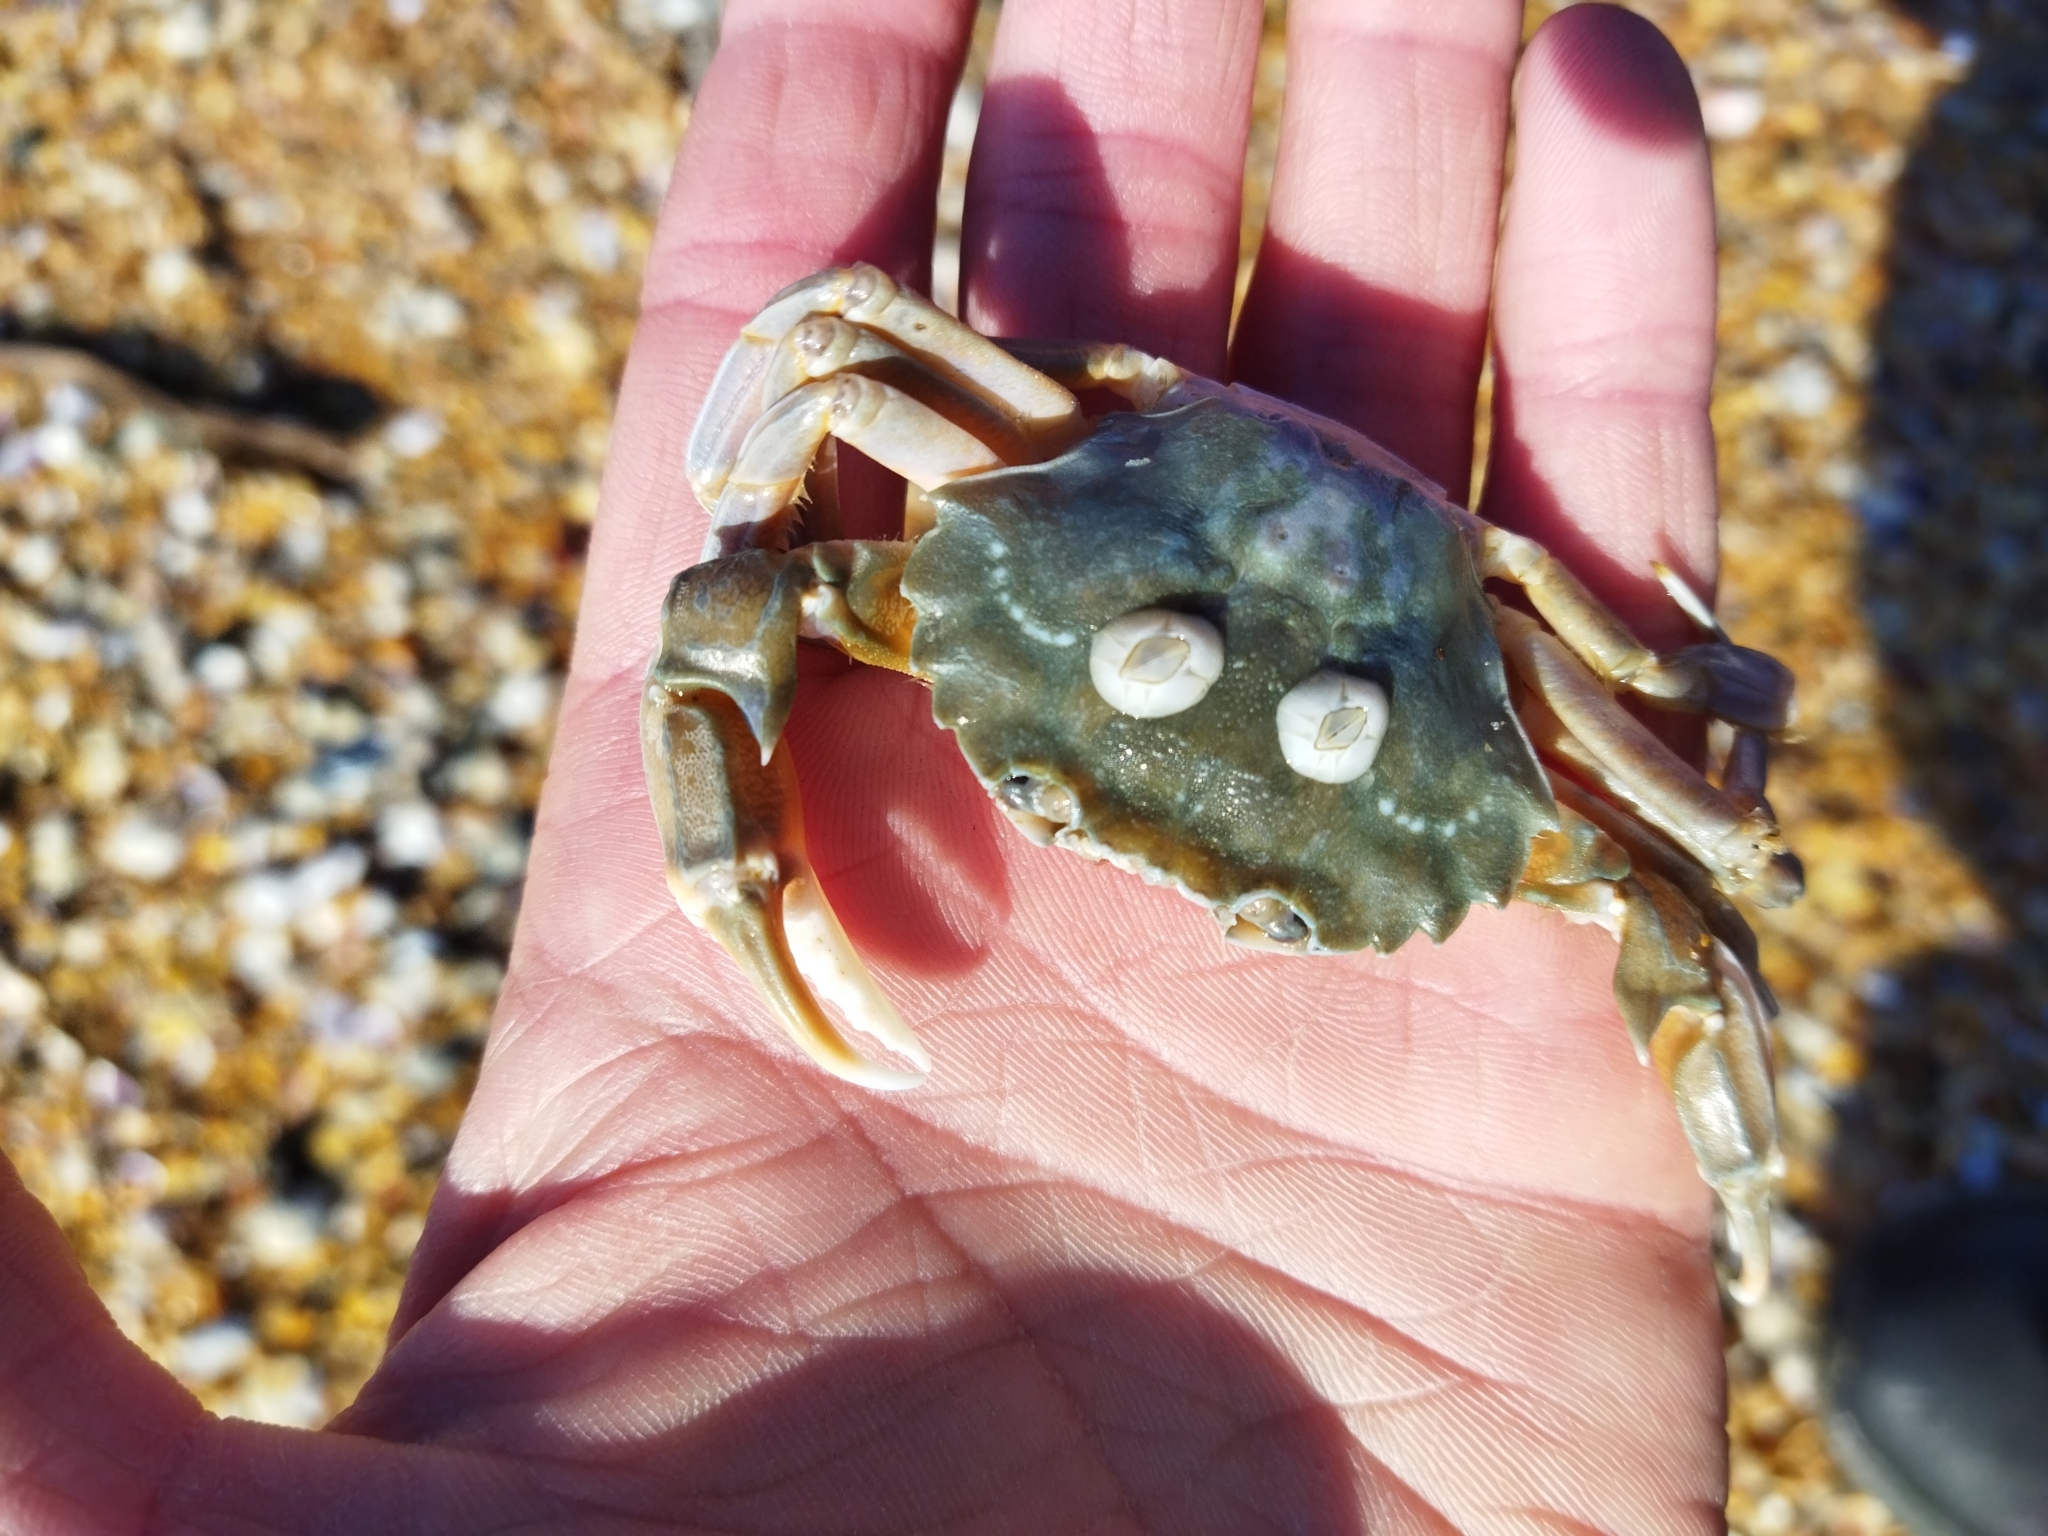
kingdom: Animalia
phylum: Arthropoda
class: Malacostraca
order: Decapoda
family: Polybiidae
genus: Liocarcinus
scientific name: Liocarcinus vernalis
